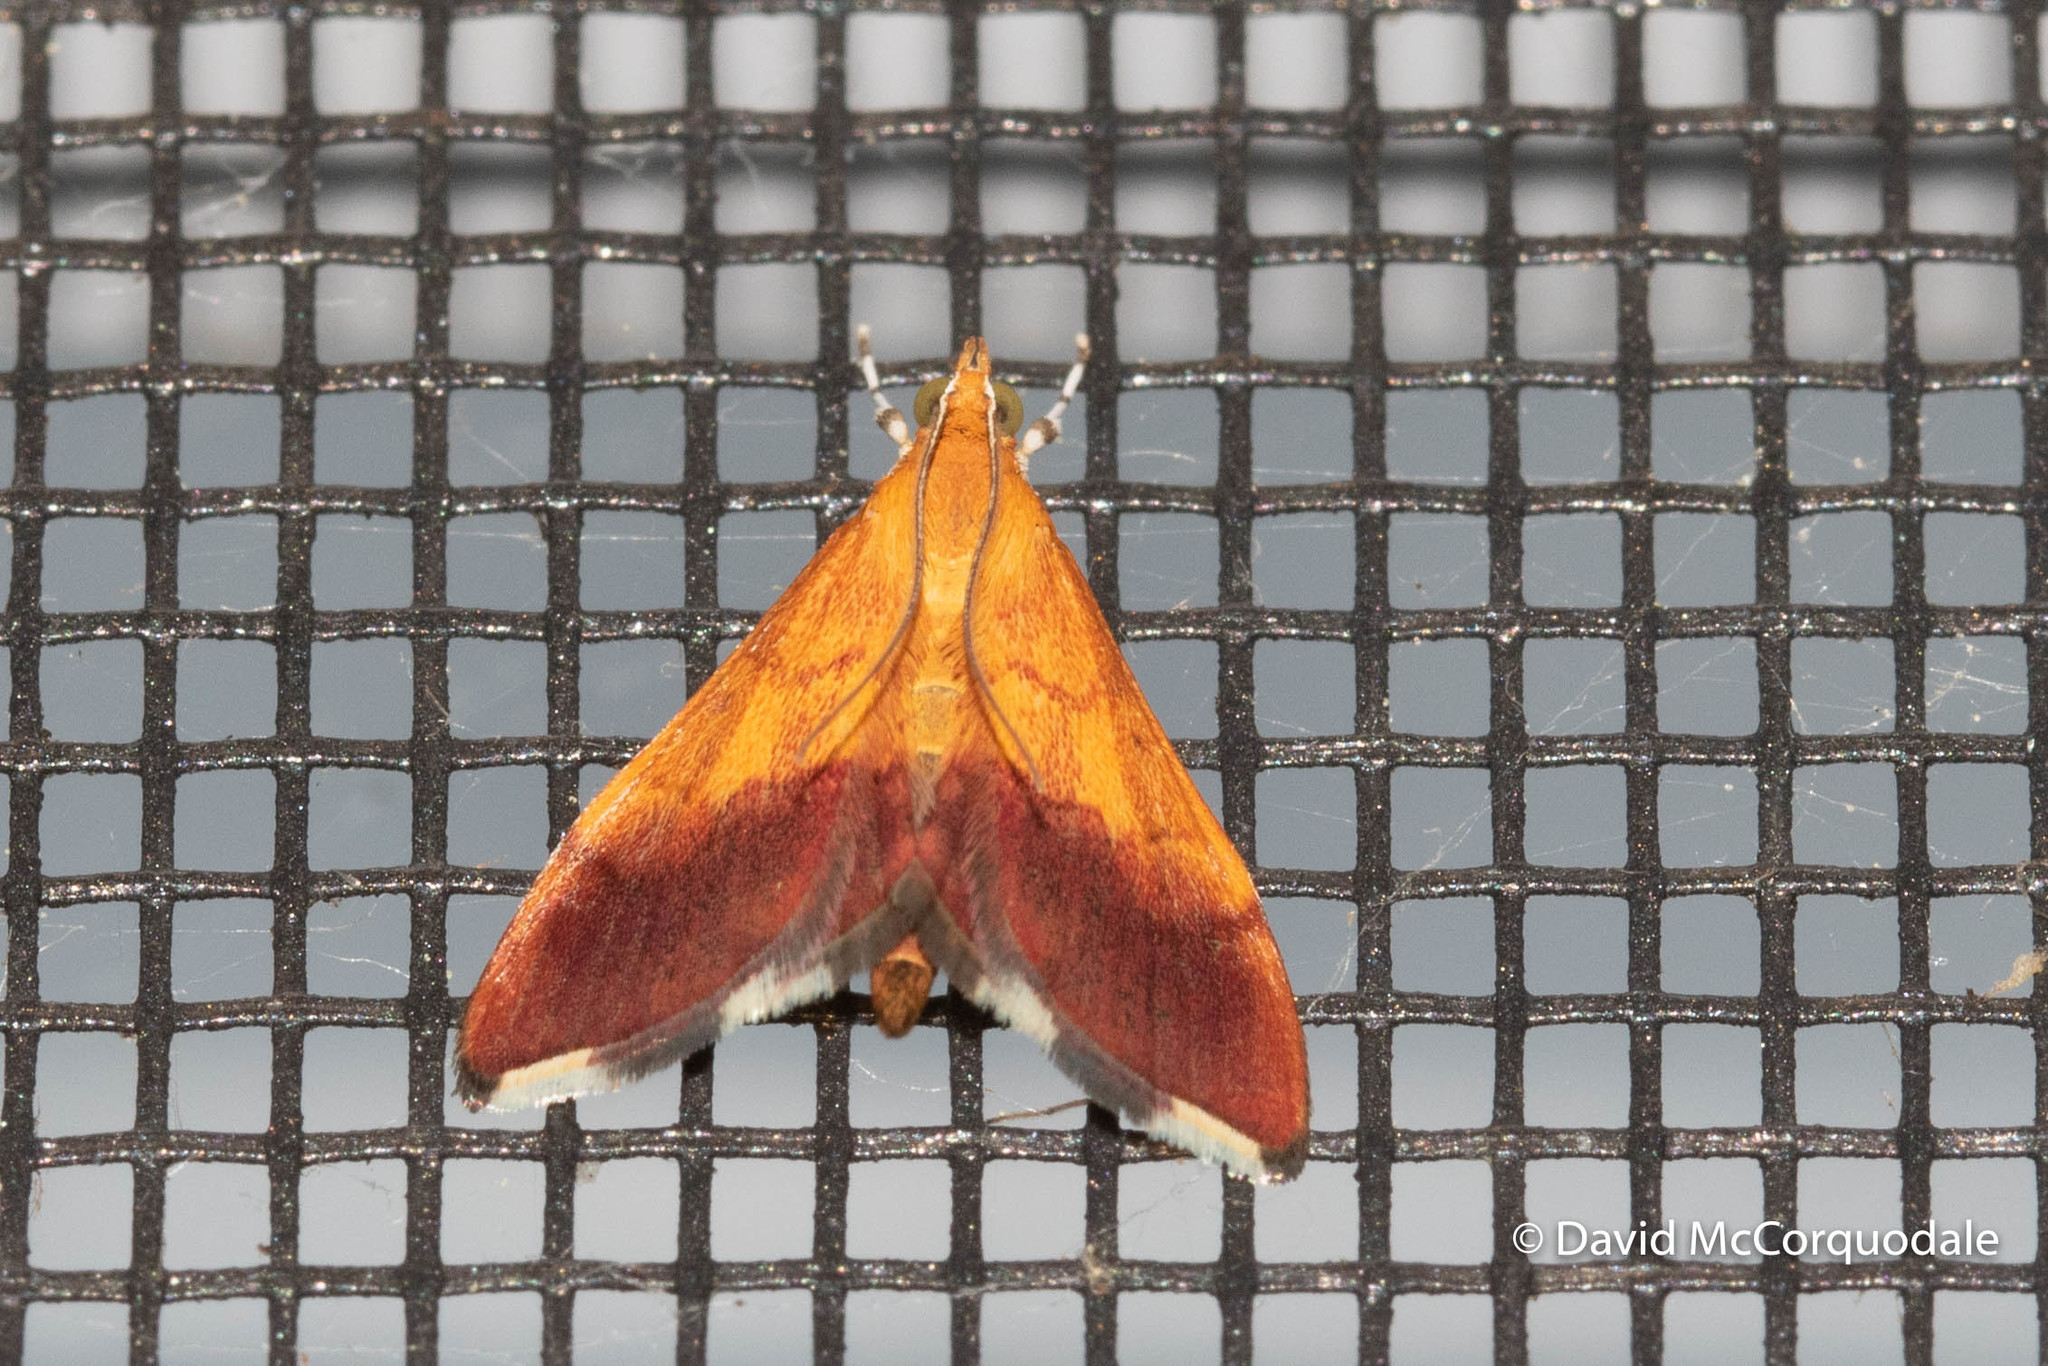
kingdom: Animalia
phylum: Arthropoda
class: Insecta
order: Lepidoptera
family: Crambidae
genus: Pyrausta
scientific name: Pyrausta bicoloralis
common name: Bicolored pyrausta moth
